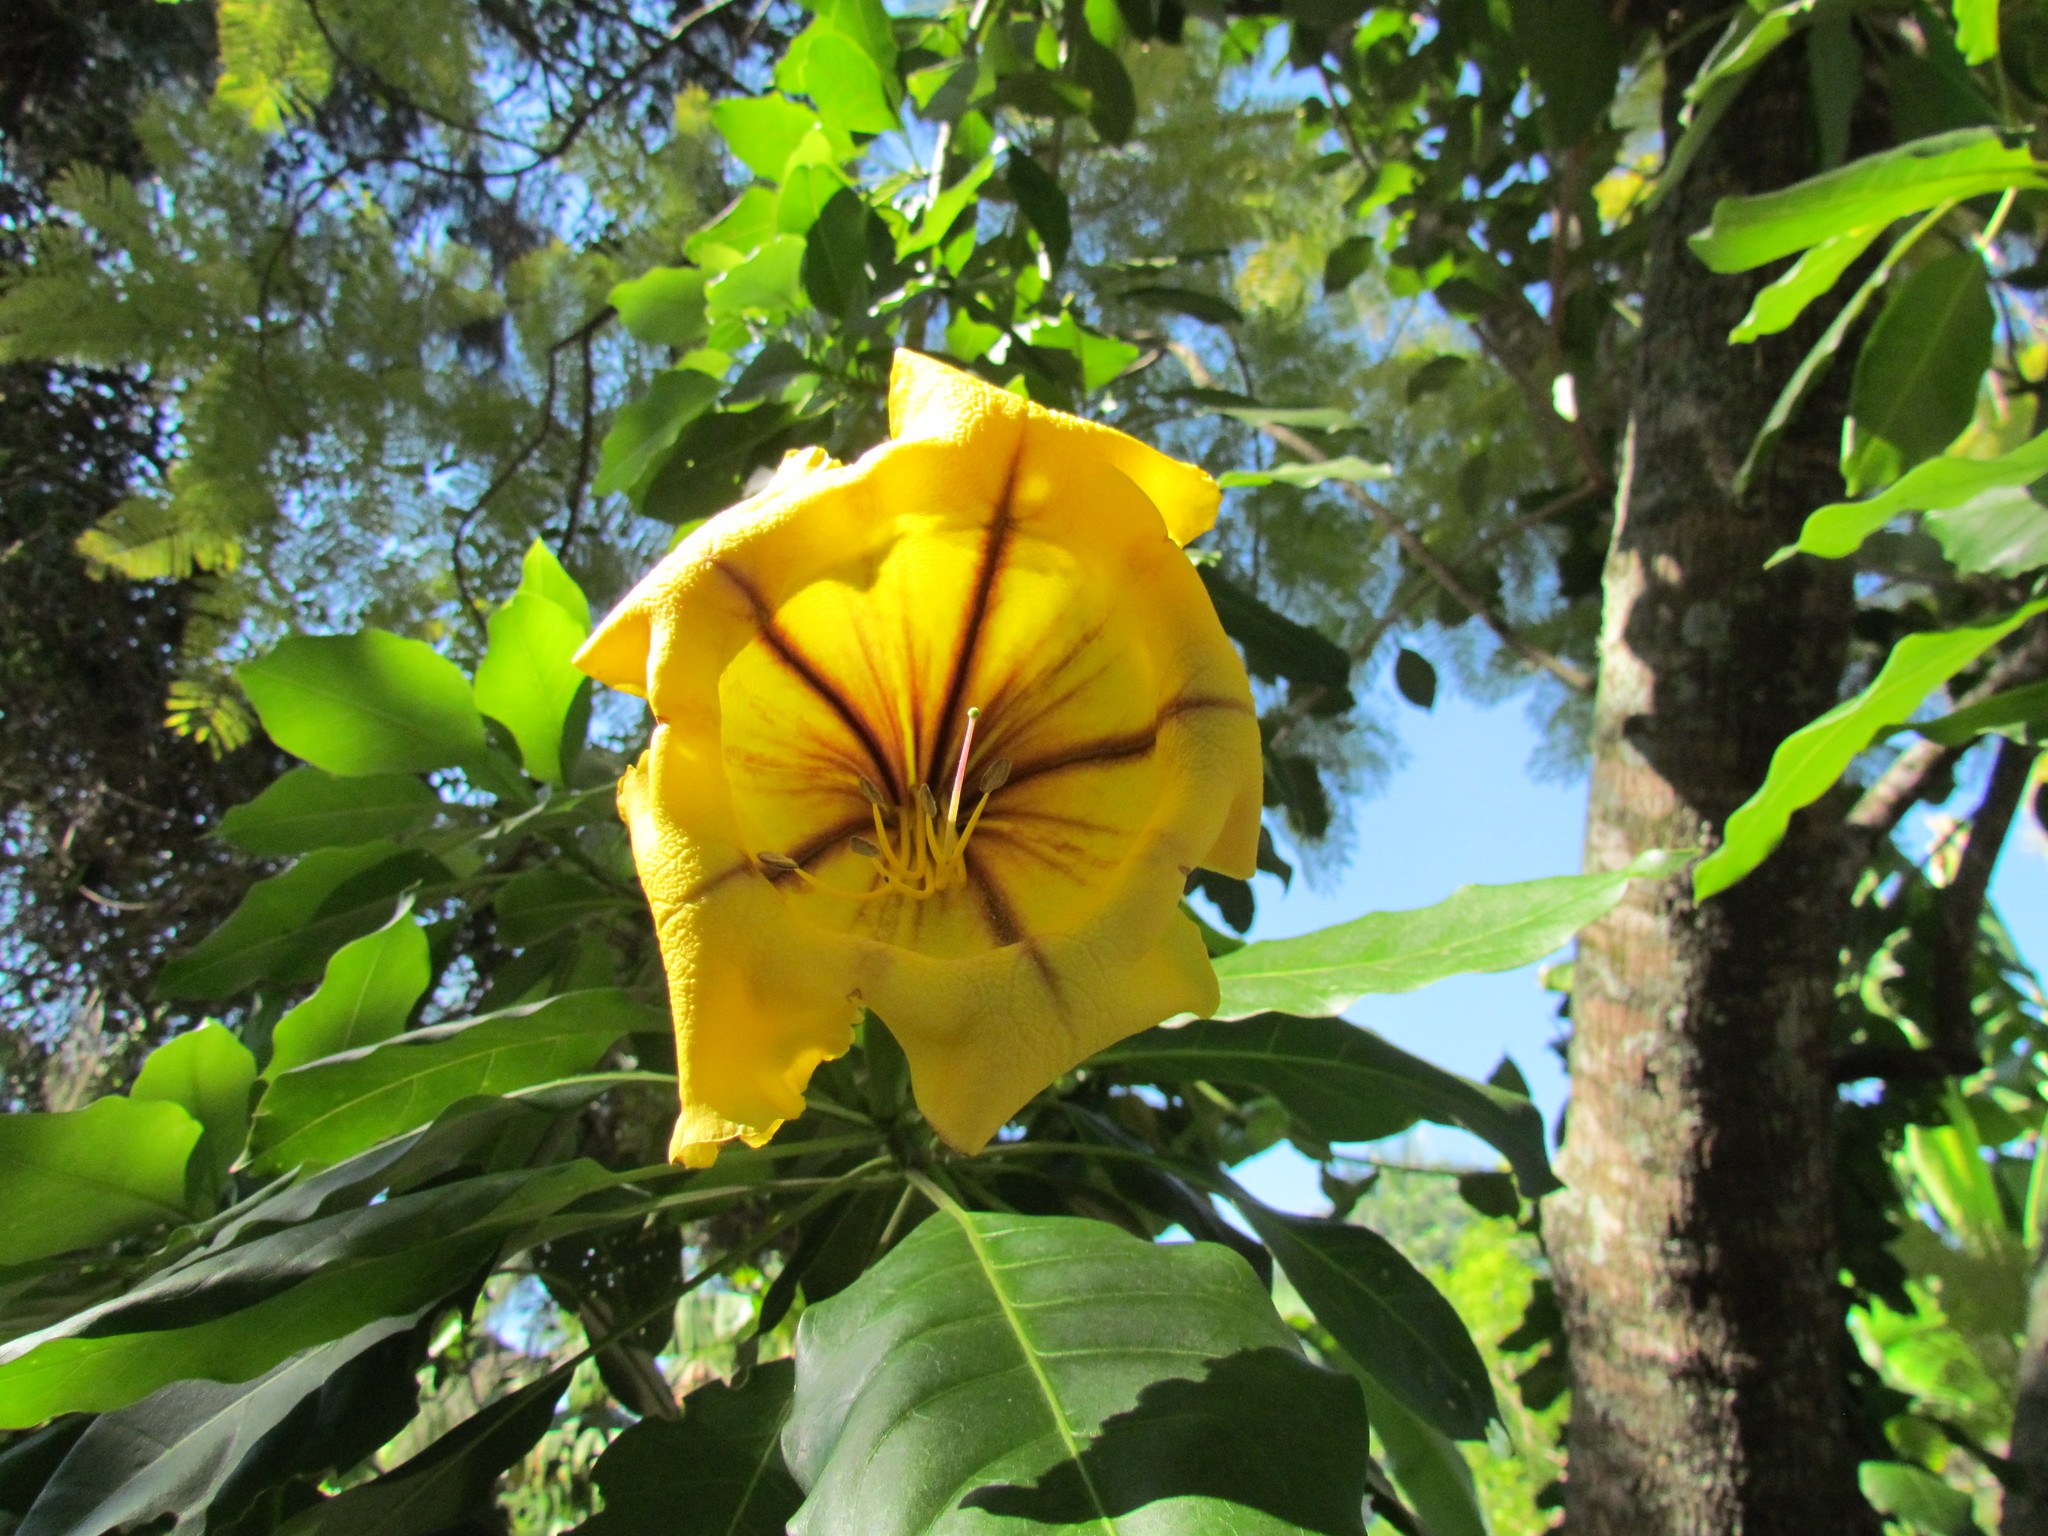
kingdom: Plantae
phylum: Tracheophyta
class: Magnoliopsida
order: Solanales
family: Solanaceae
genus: Solandra
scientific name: Solandra maxima
